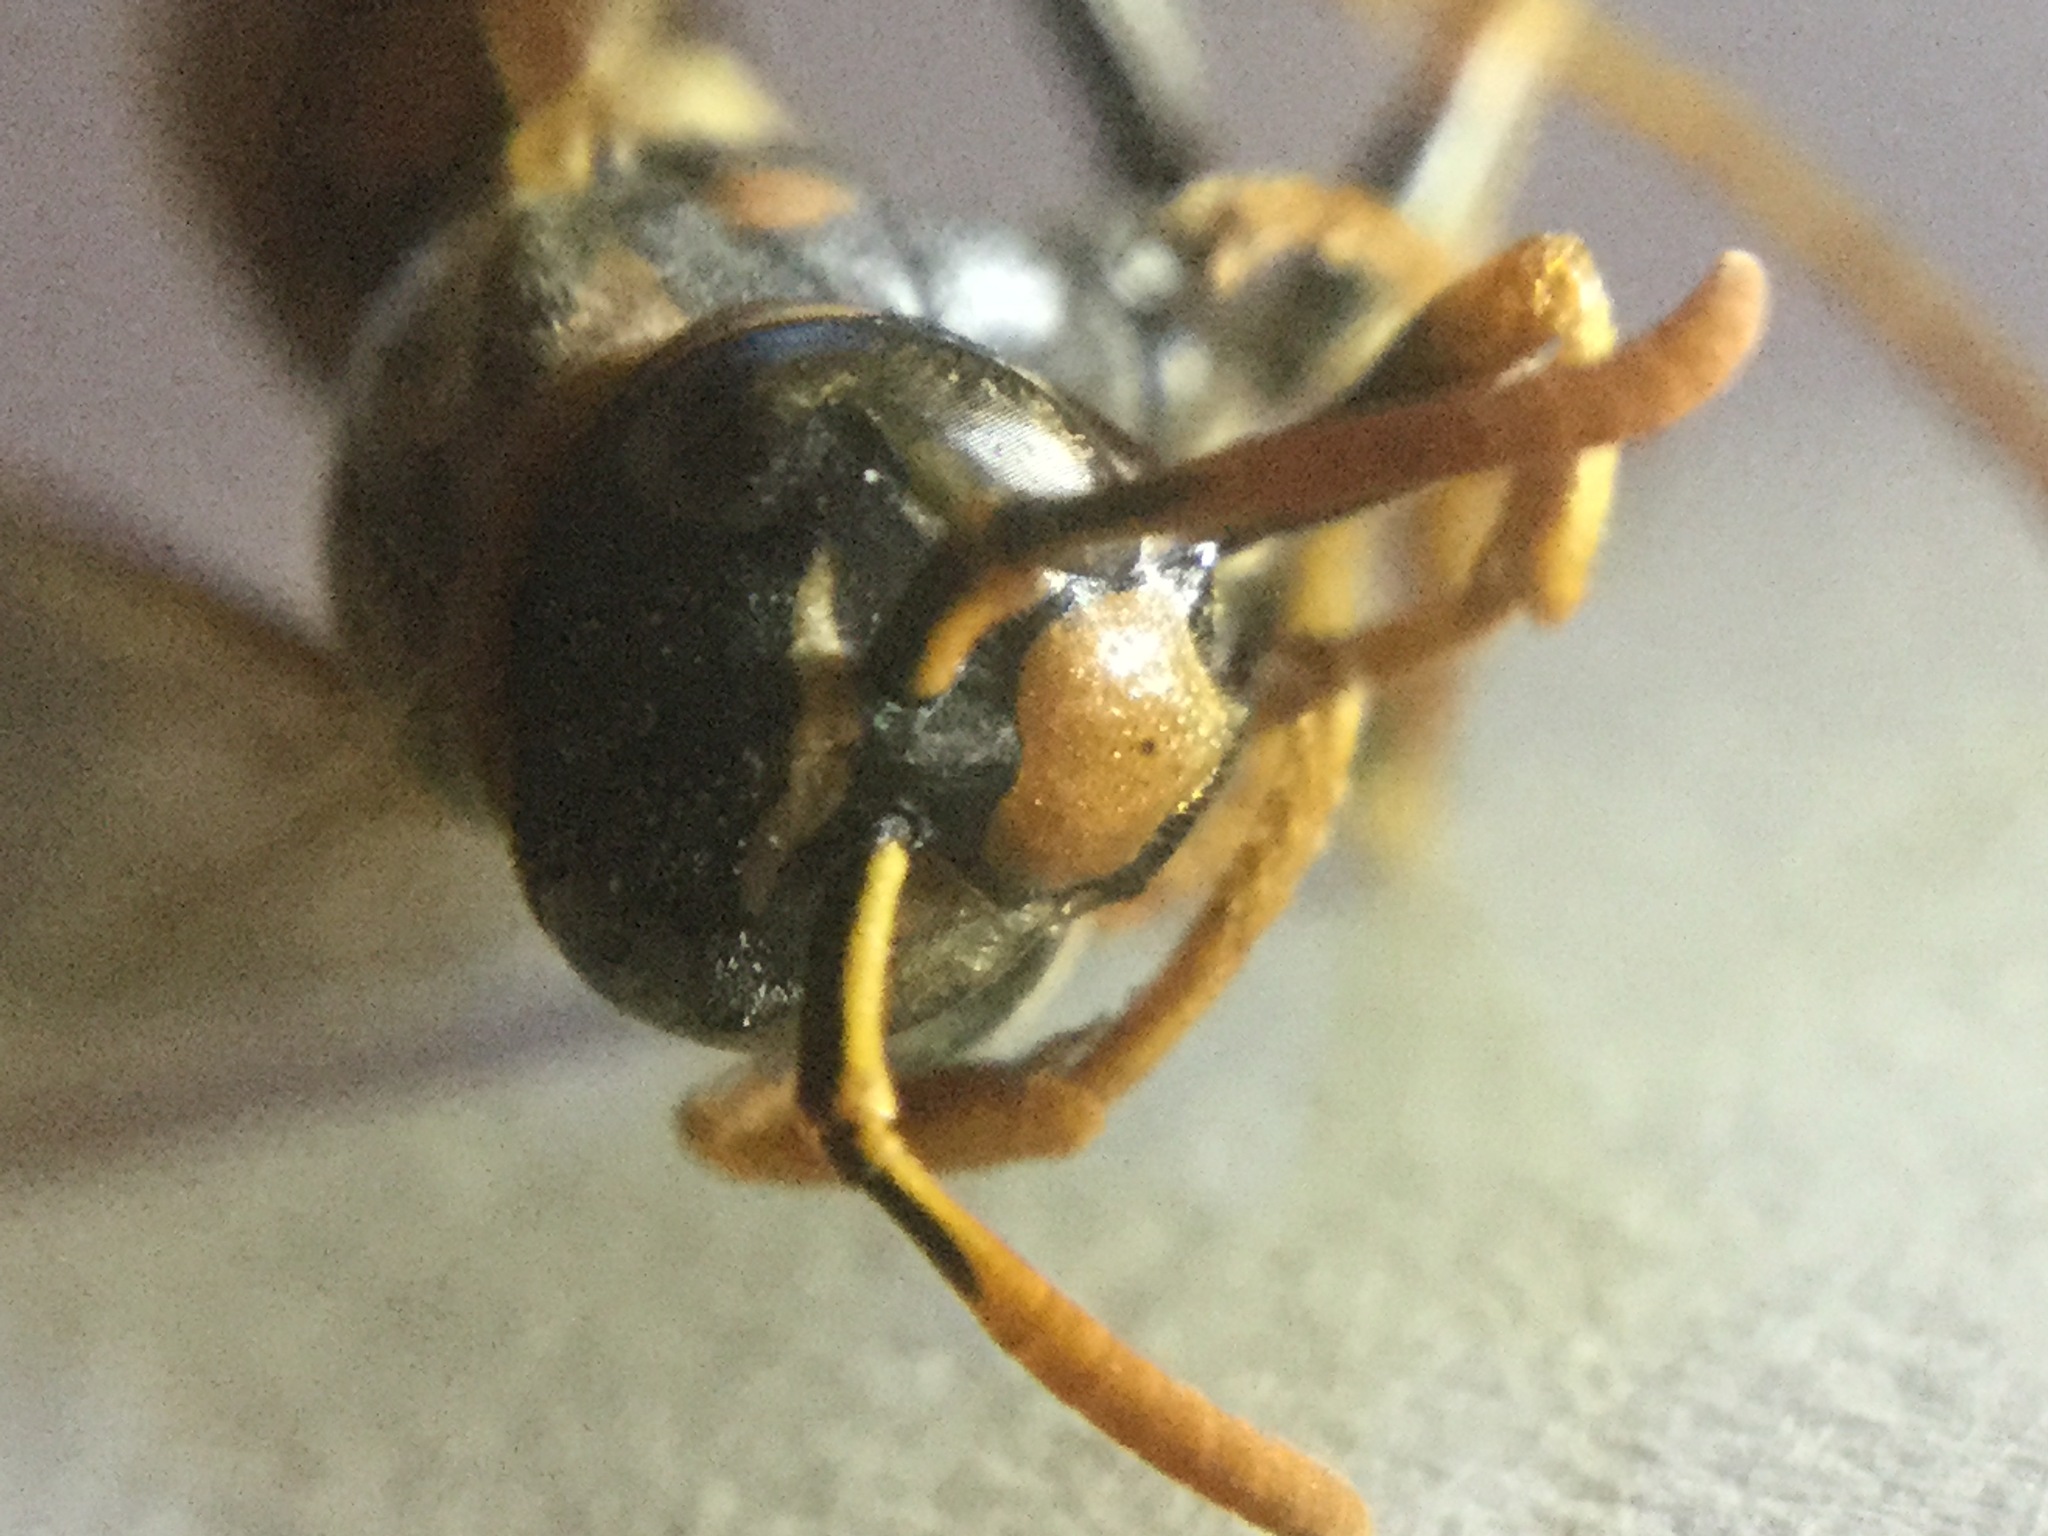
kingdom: Animalia
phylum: Arthropoda
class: Insecta
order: Hymenoptera
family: Eumenidae
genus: Polistes
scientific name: Polistes dominula
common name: Paper wasp
